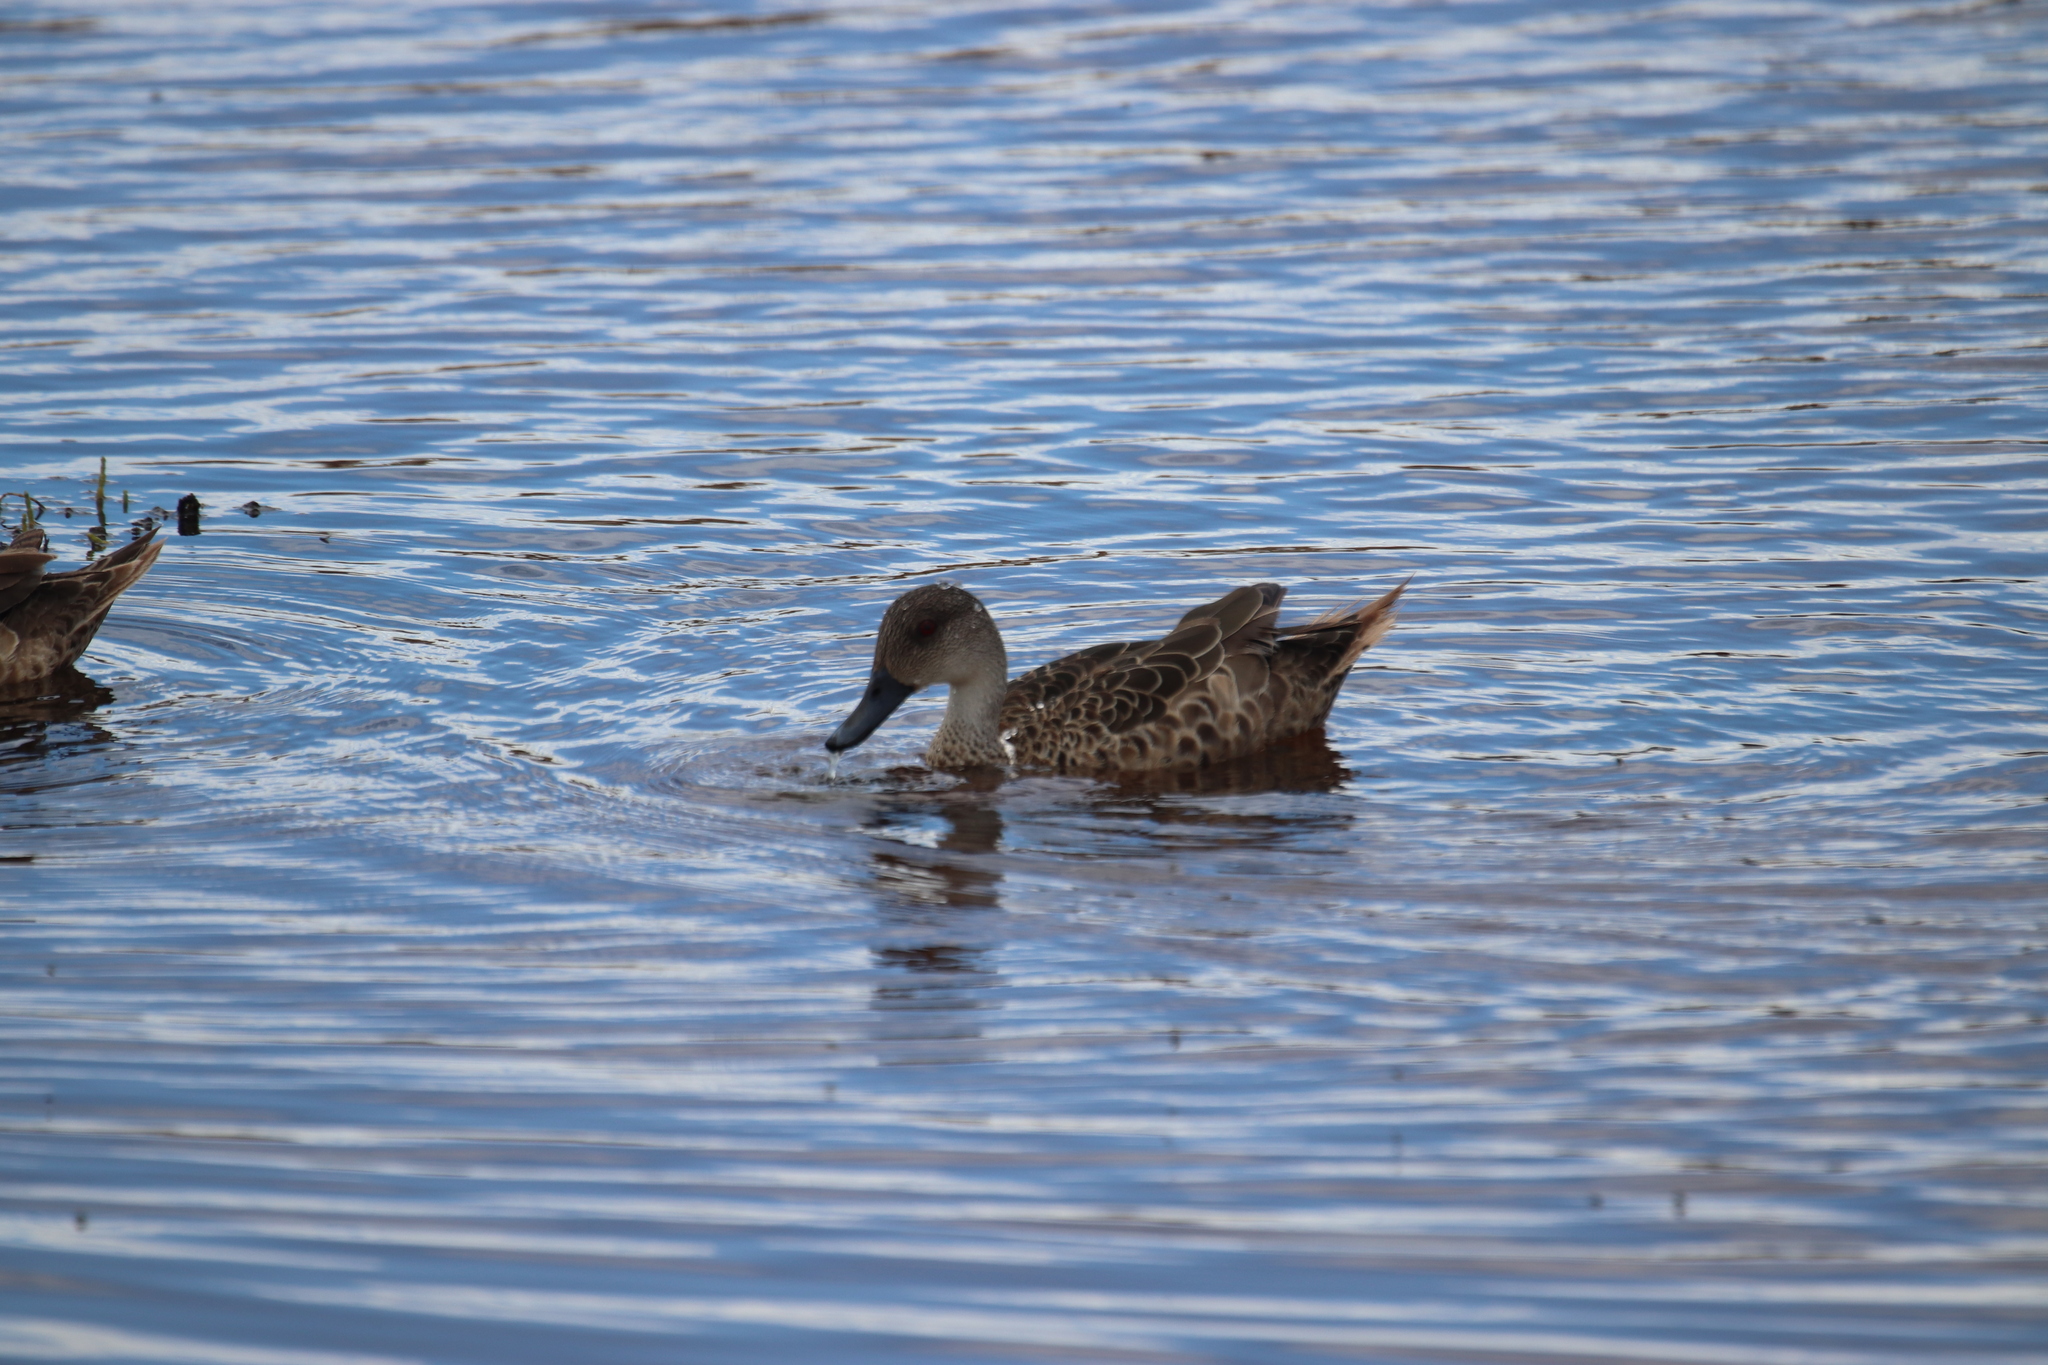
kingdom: Animalia
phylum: Chordata
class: Aves
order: Anseriformes
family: Anatidae
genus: Anas
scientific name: Anas gracilis
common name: Grey teal
